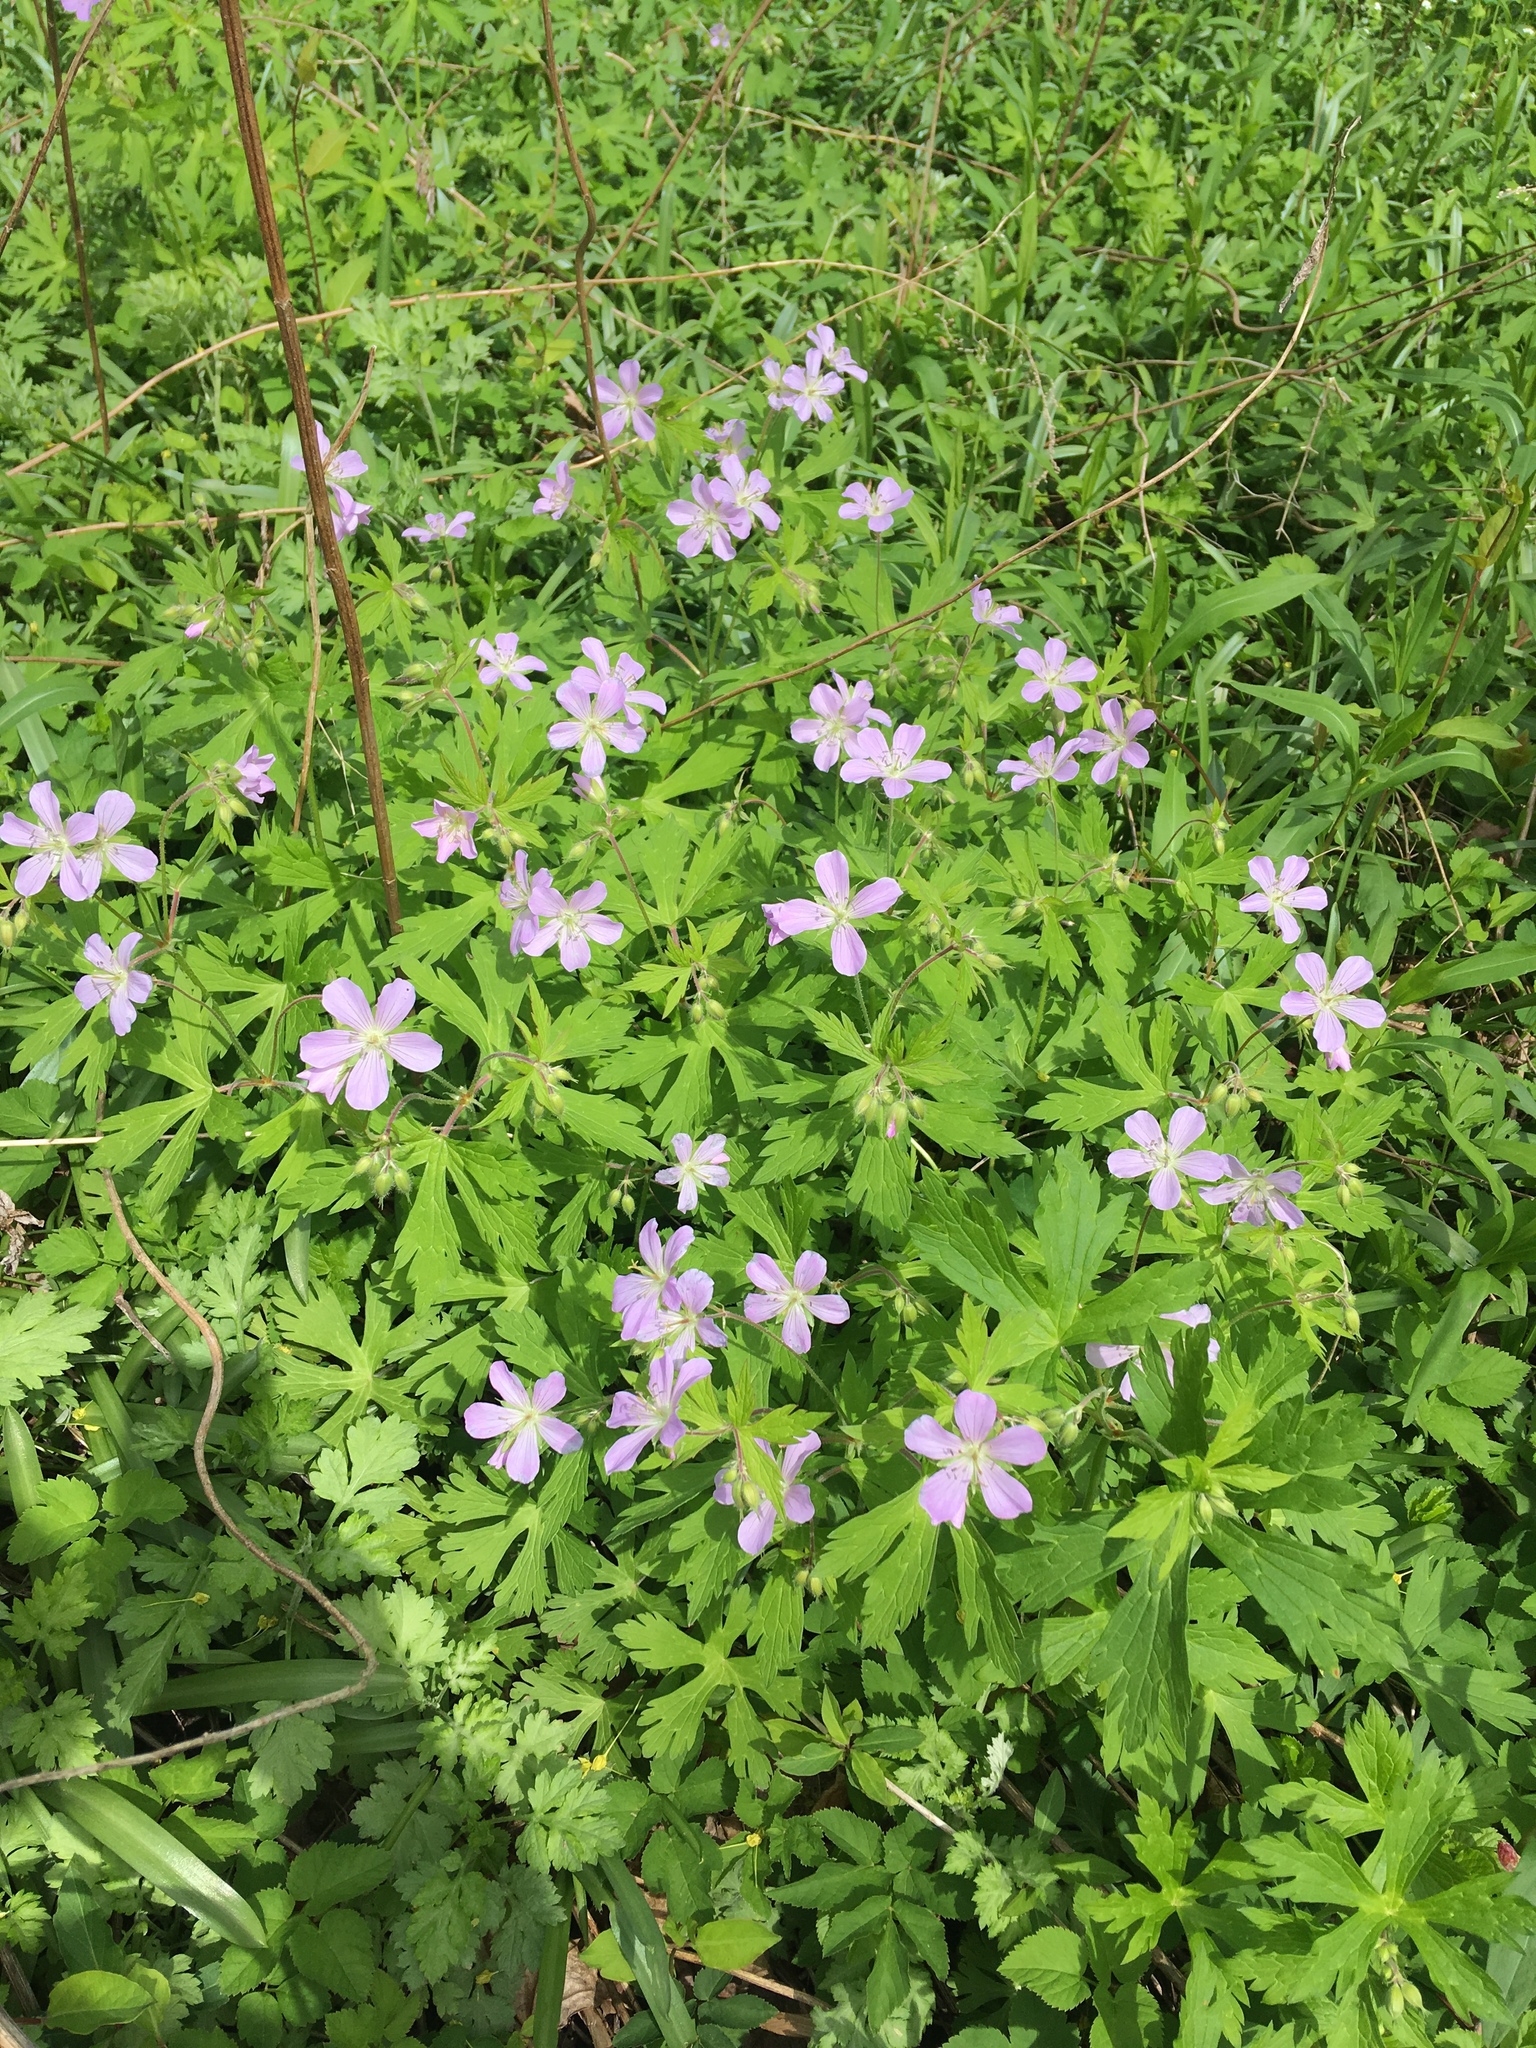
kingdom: Plantae
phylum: Tracheophyta
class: Magnoliopsida
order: Geraniales
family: Geraniaceae
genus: Geranium
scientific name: Geranium maculatum
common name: Spotted geranium
